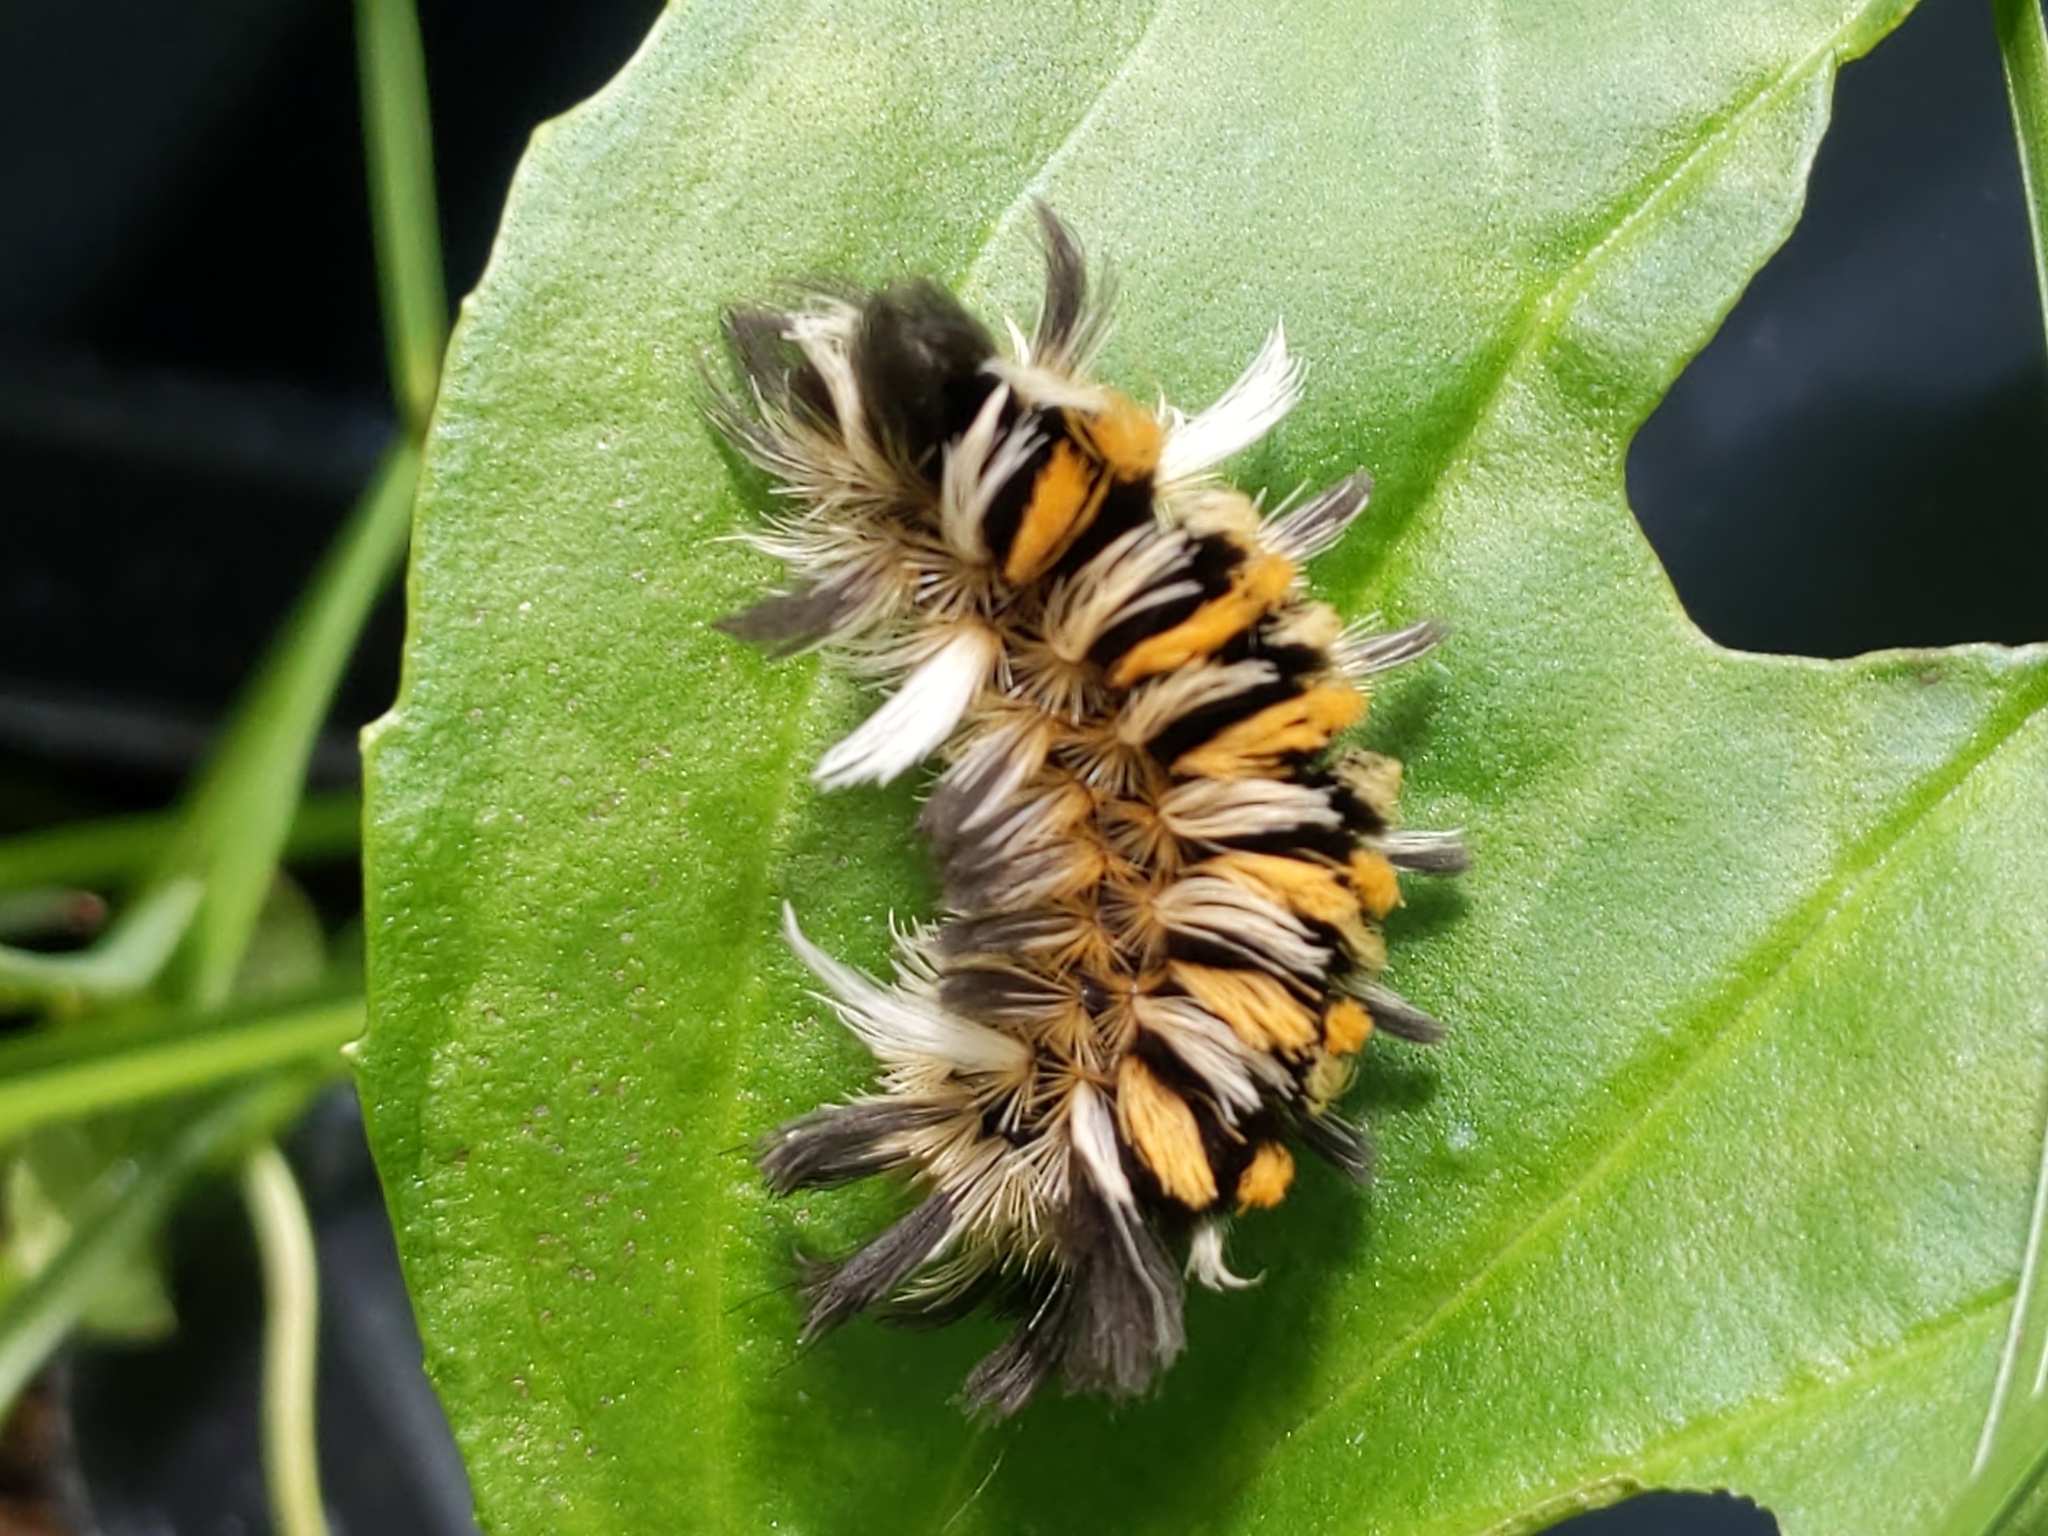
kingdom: Animalia
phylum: Arthropoda
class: Insecta
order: Lepidoptera
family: Erebidae
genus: Euchaetes
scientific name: Euchaetes egle
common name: Milkweed tussock moth
